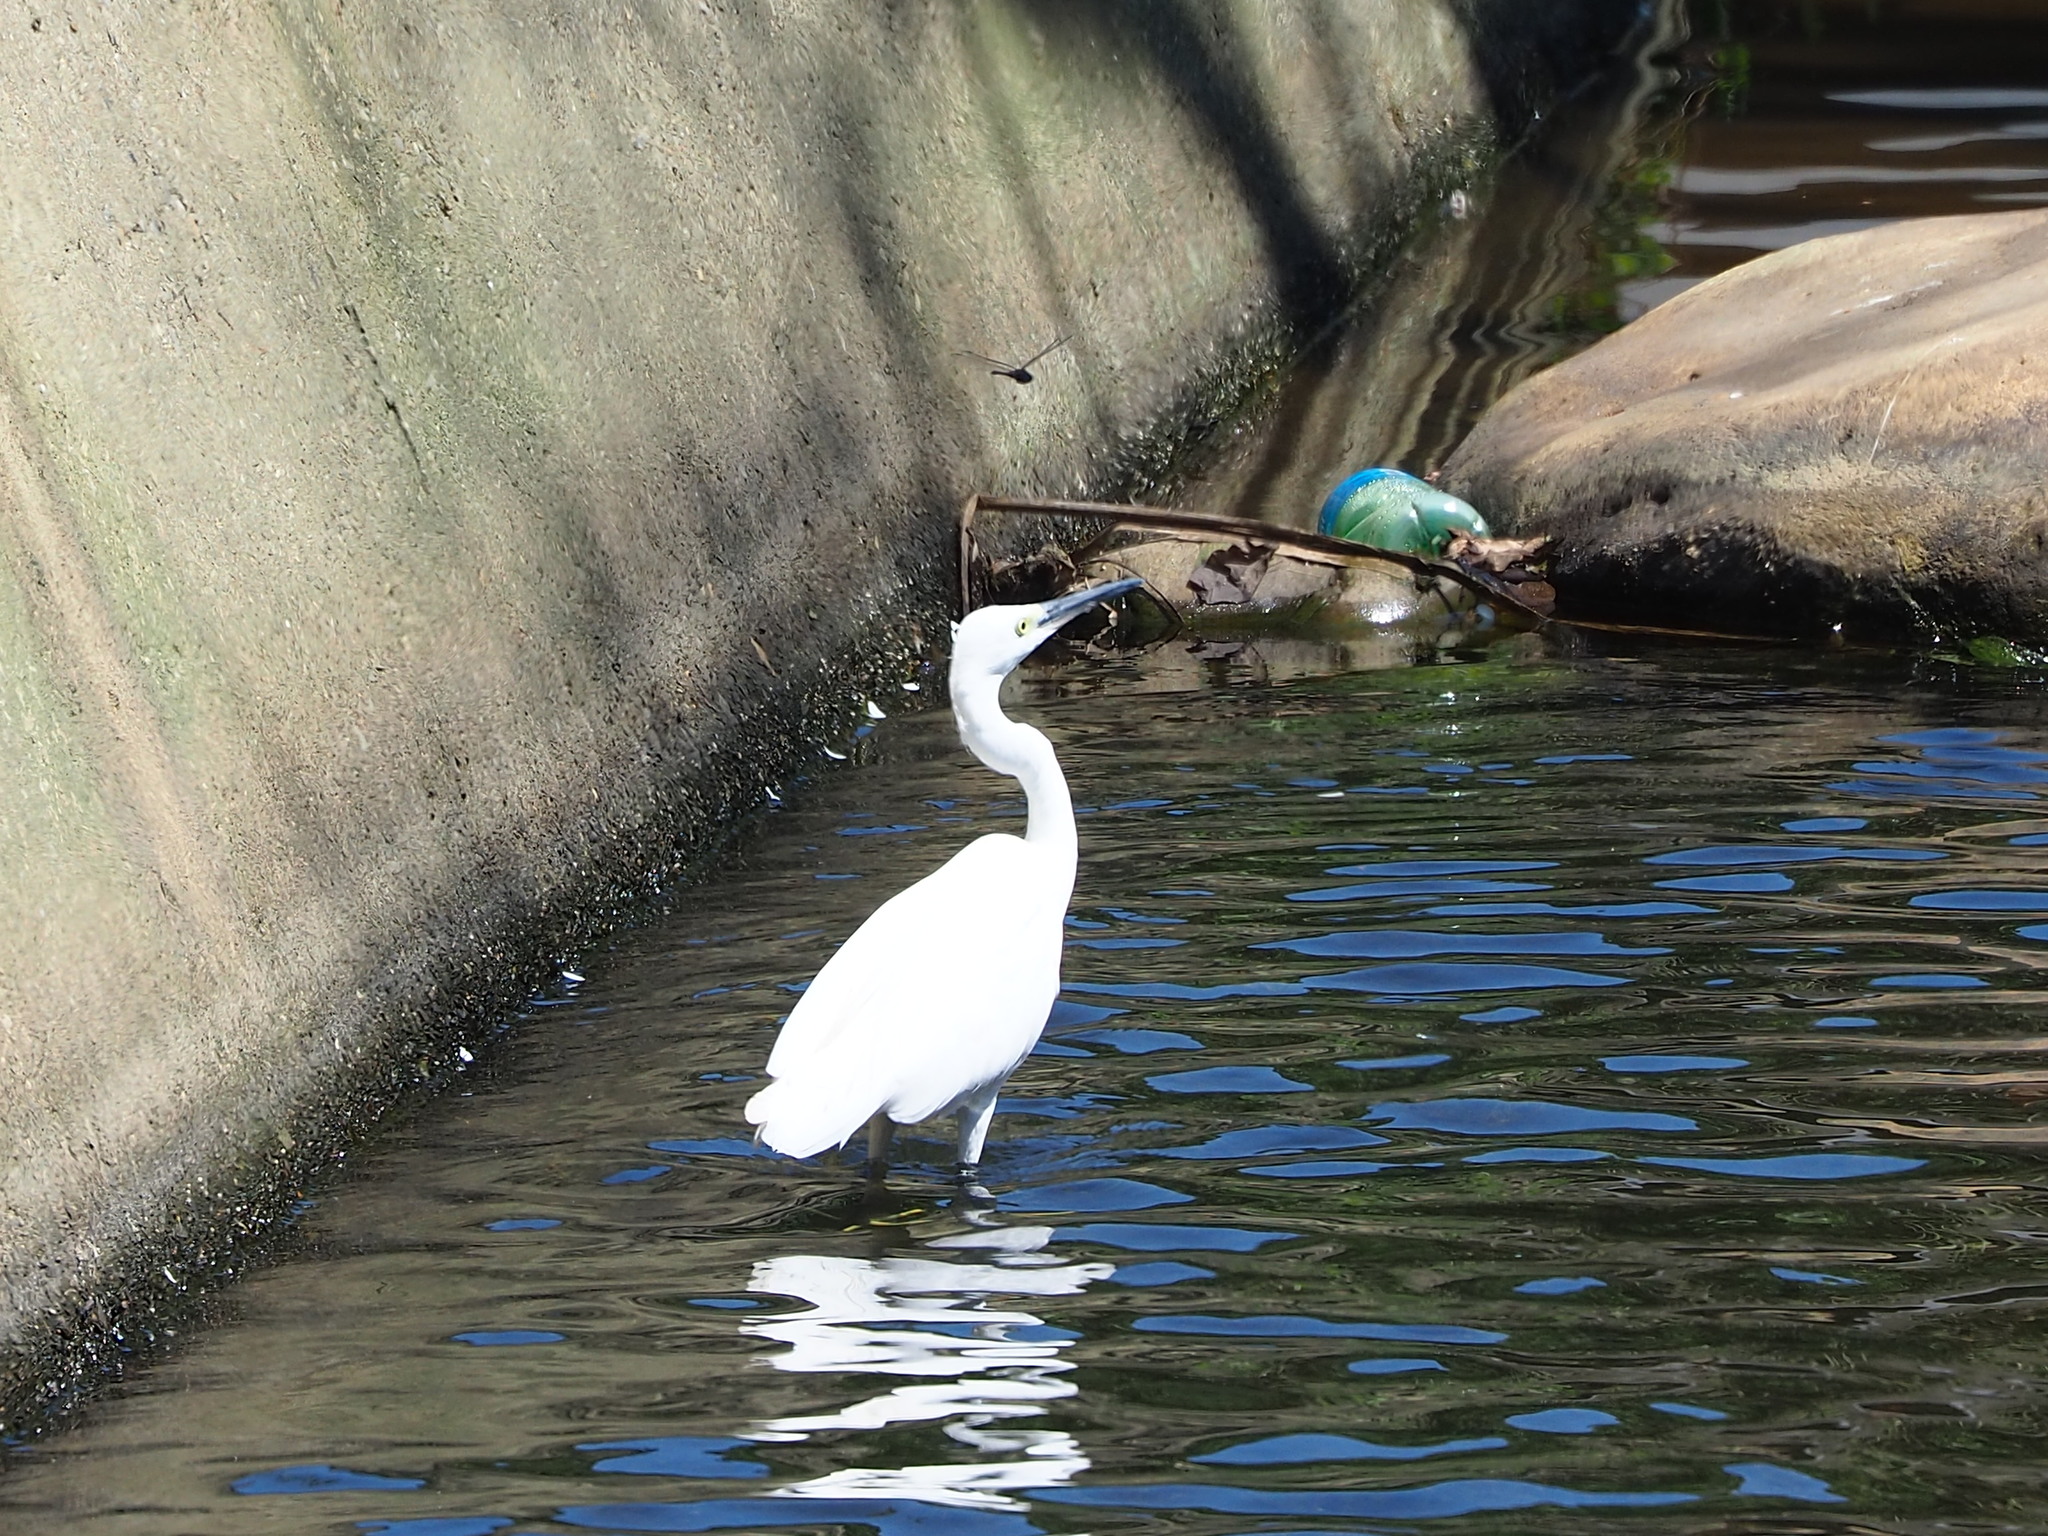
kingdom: Animalia
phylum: Chordata
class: Aves
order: Pelecaniformes
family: Ardeidae
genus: Egretta
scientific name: Egretta garzetta
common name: Little egret
